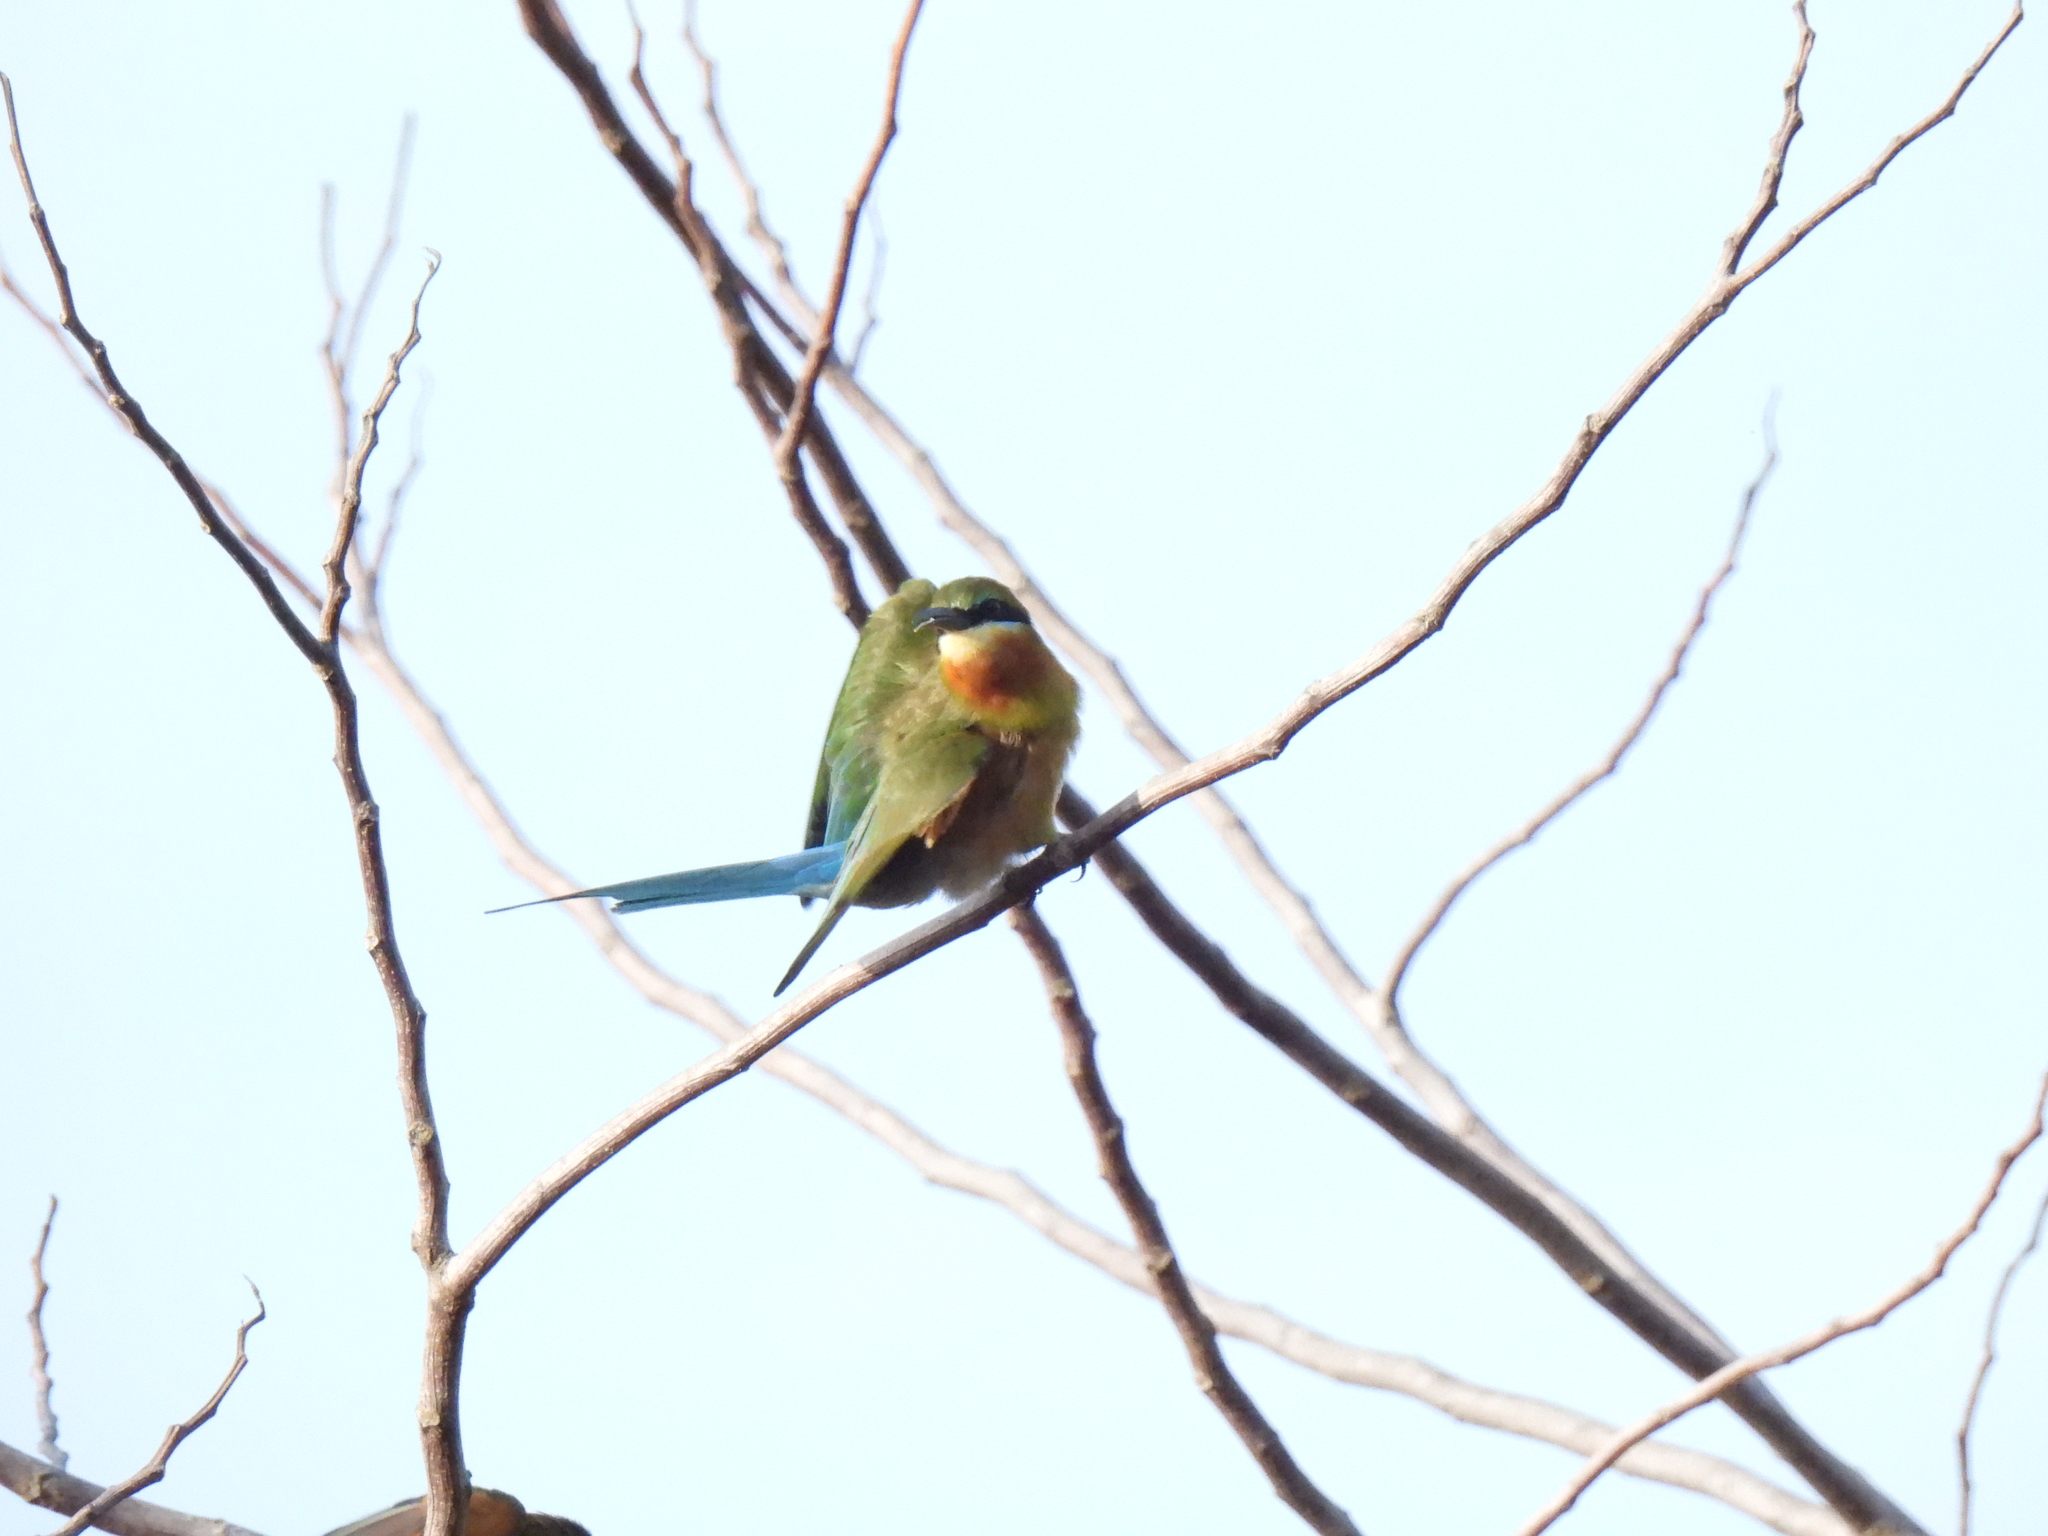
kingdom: Animalia
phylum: Chordata
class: Aves
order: Coraciiformes
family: Meropidae
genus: Merops
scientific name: Merops philippinus
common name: Blue-tailed bee-eater
